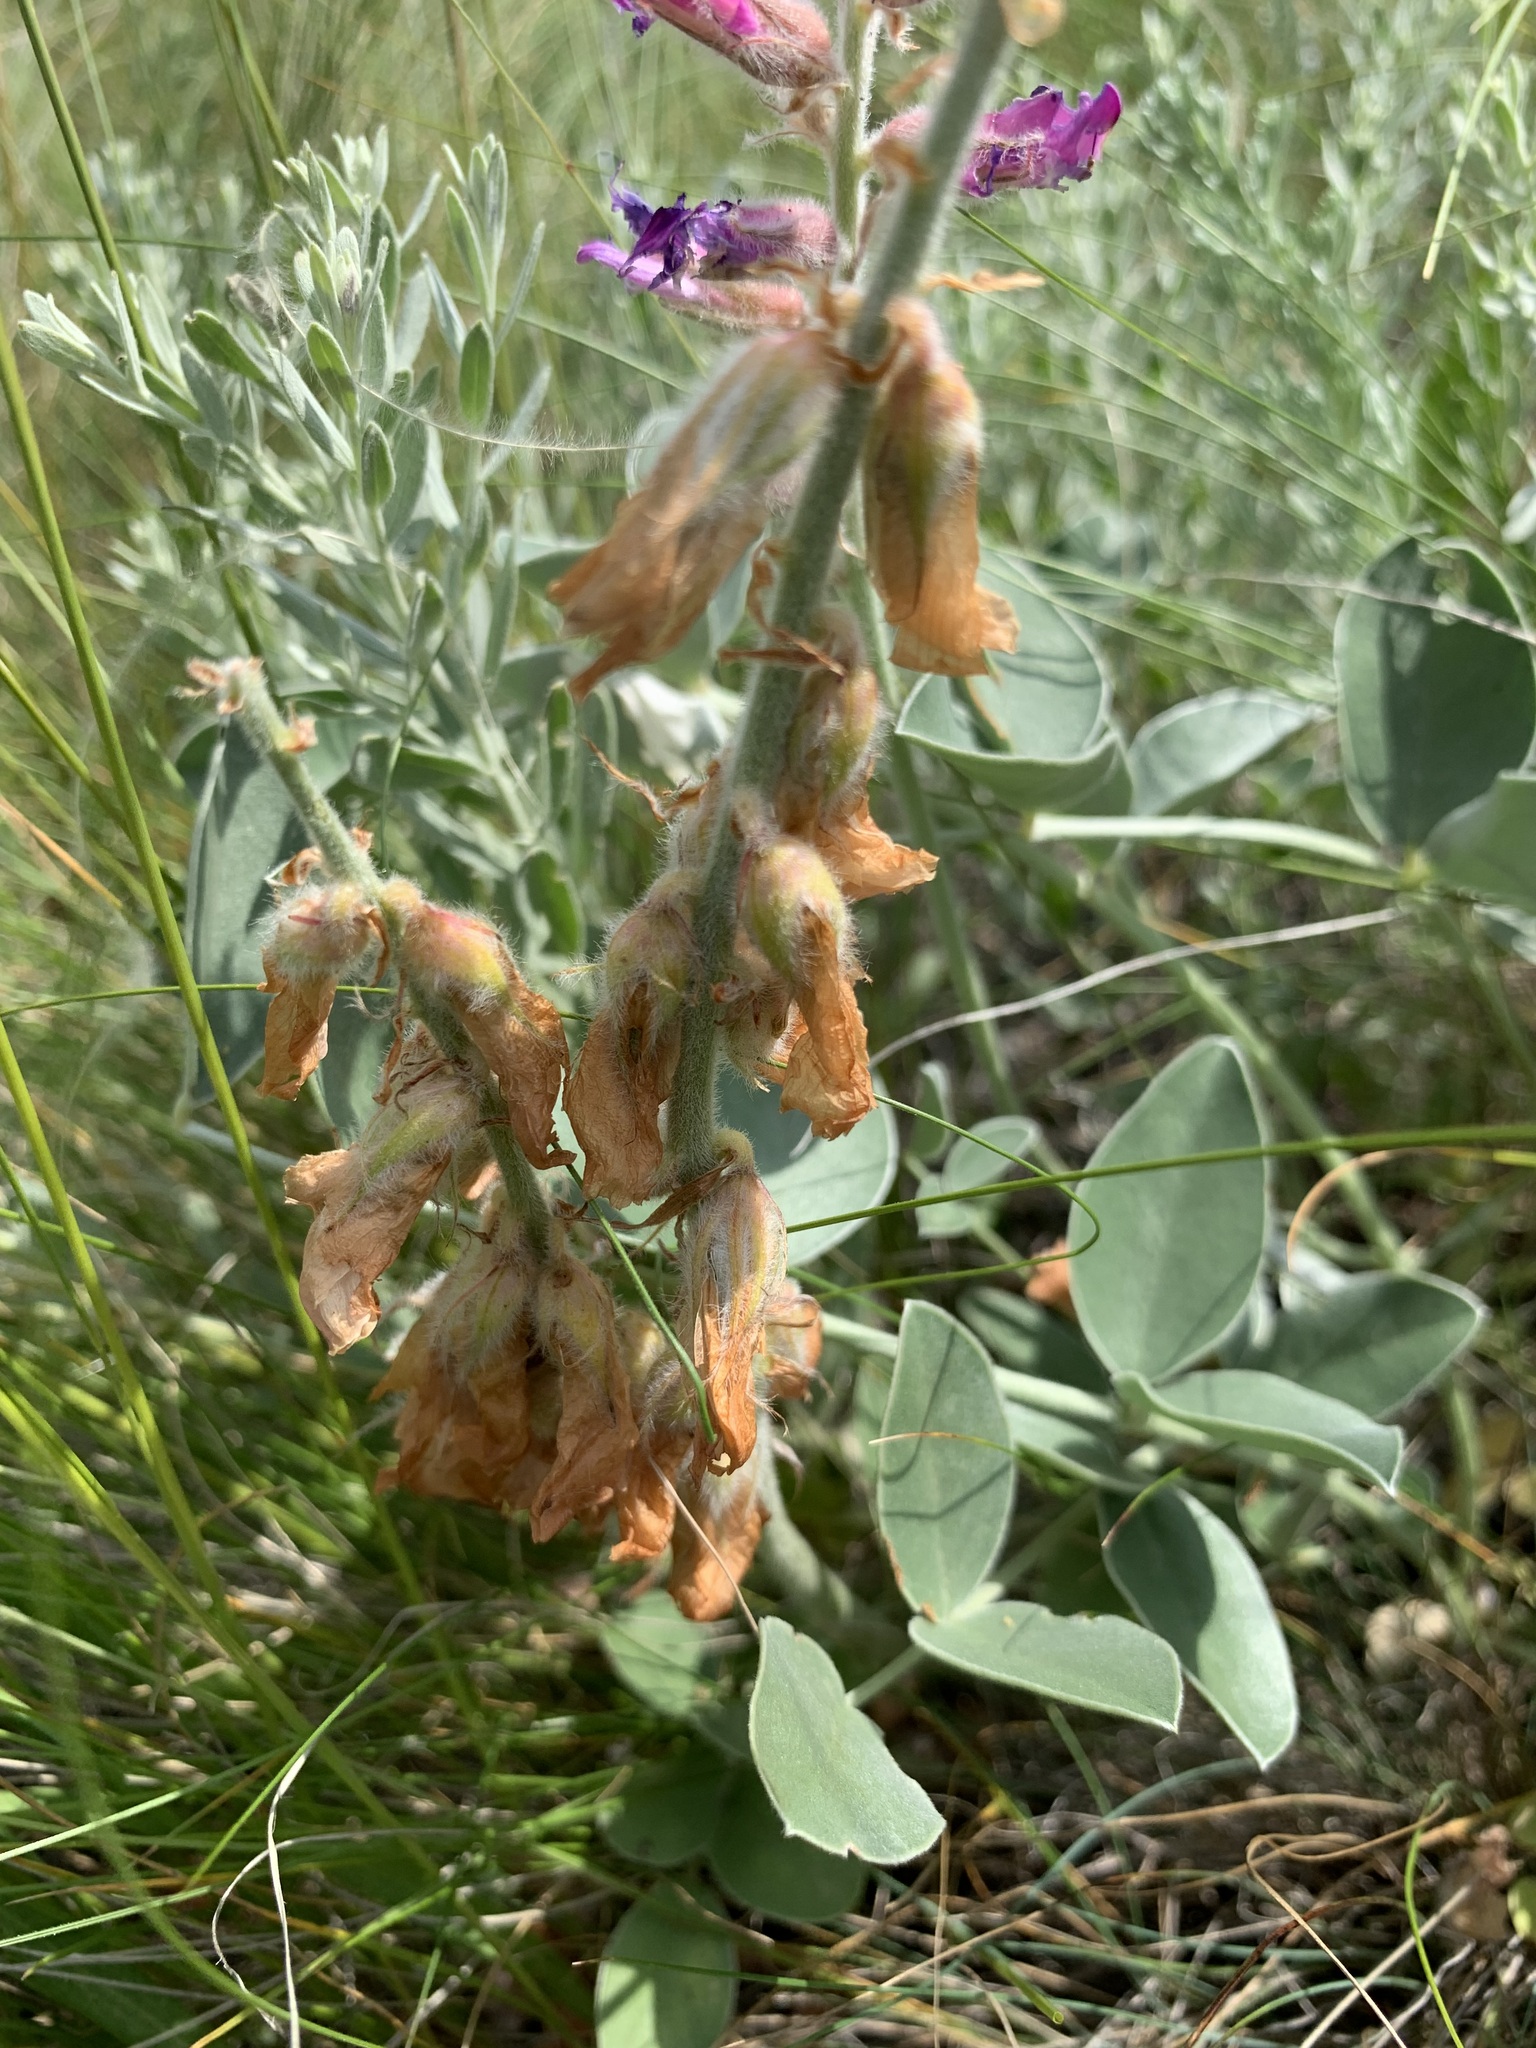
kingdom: Plantae
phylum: Tracheophyta
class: Magnoliopsida
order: Fabales
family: Fabaceae
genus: Hedysarum
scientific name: Hedysarum argyrophyllum
